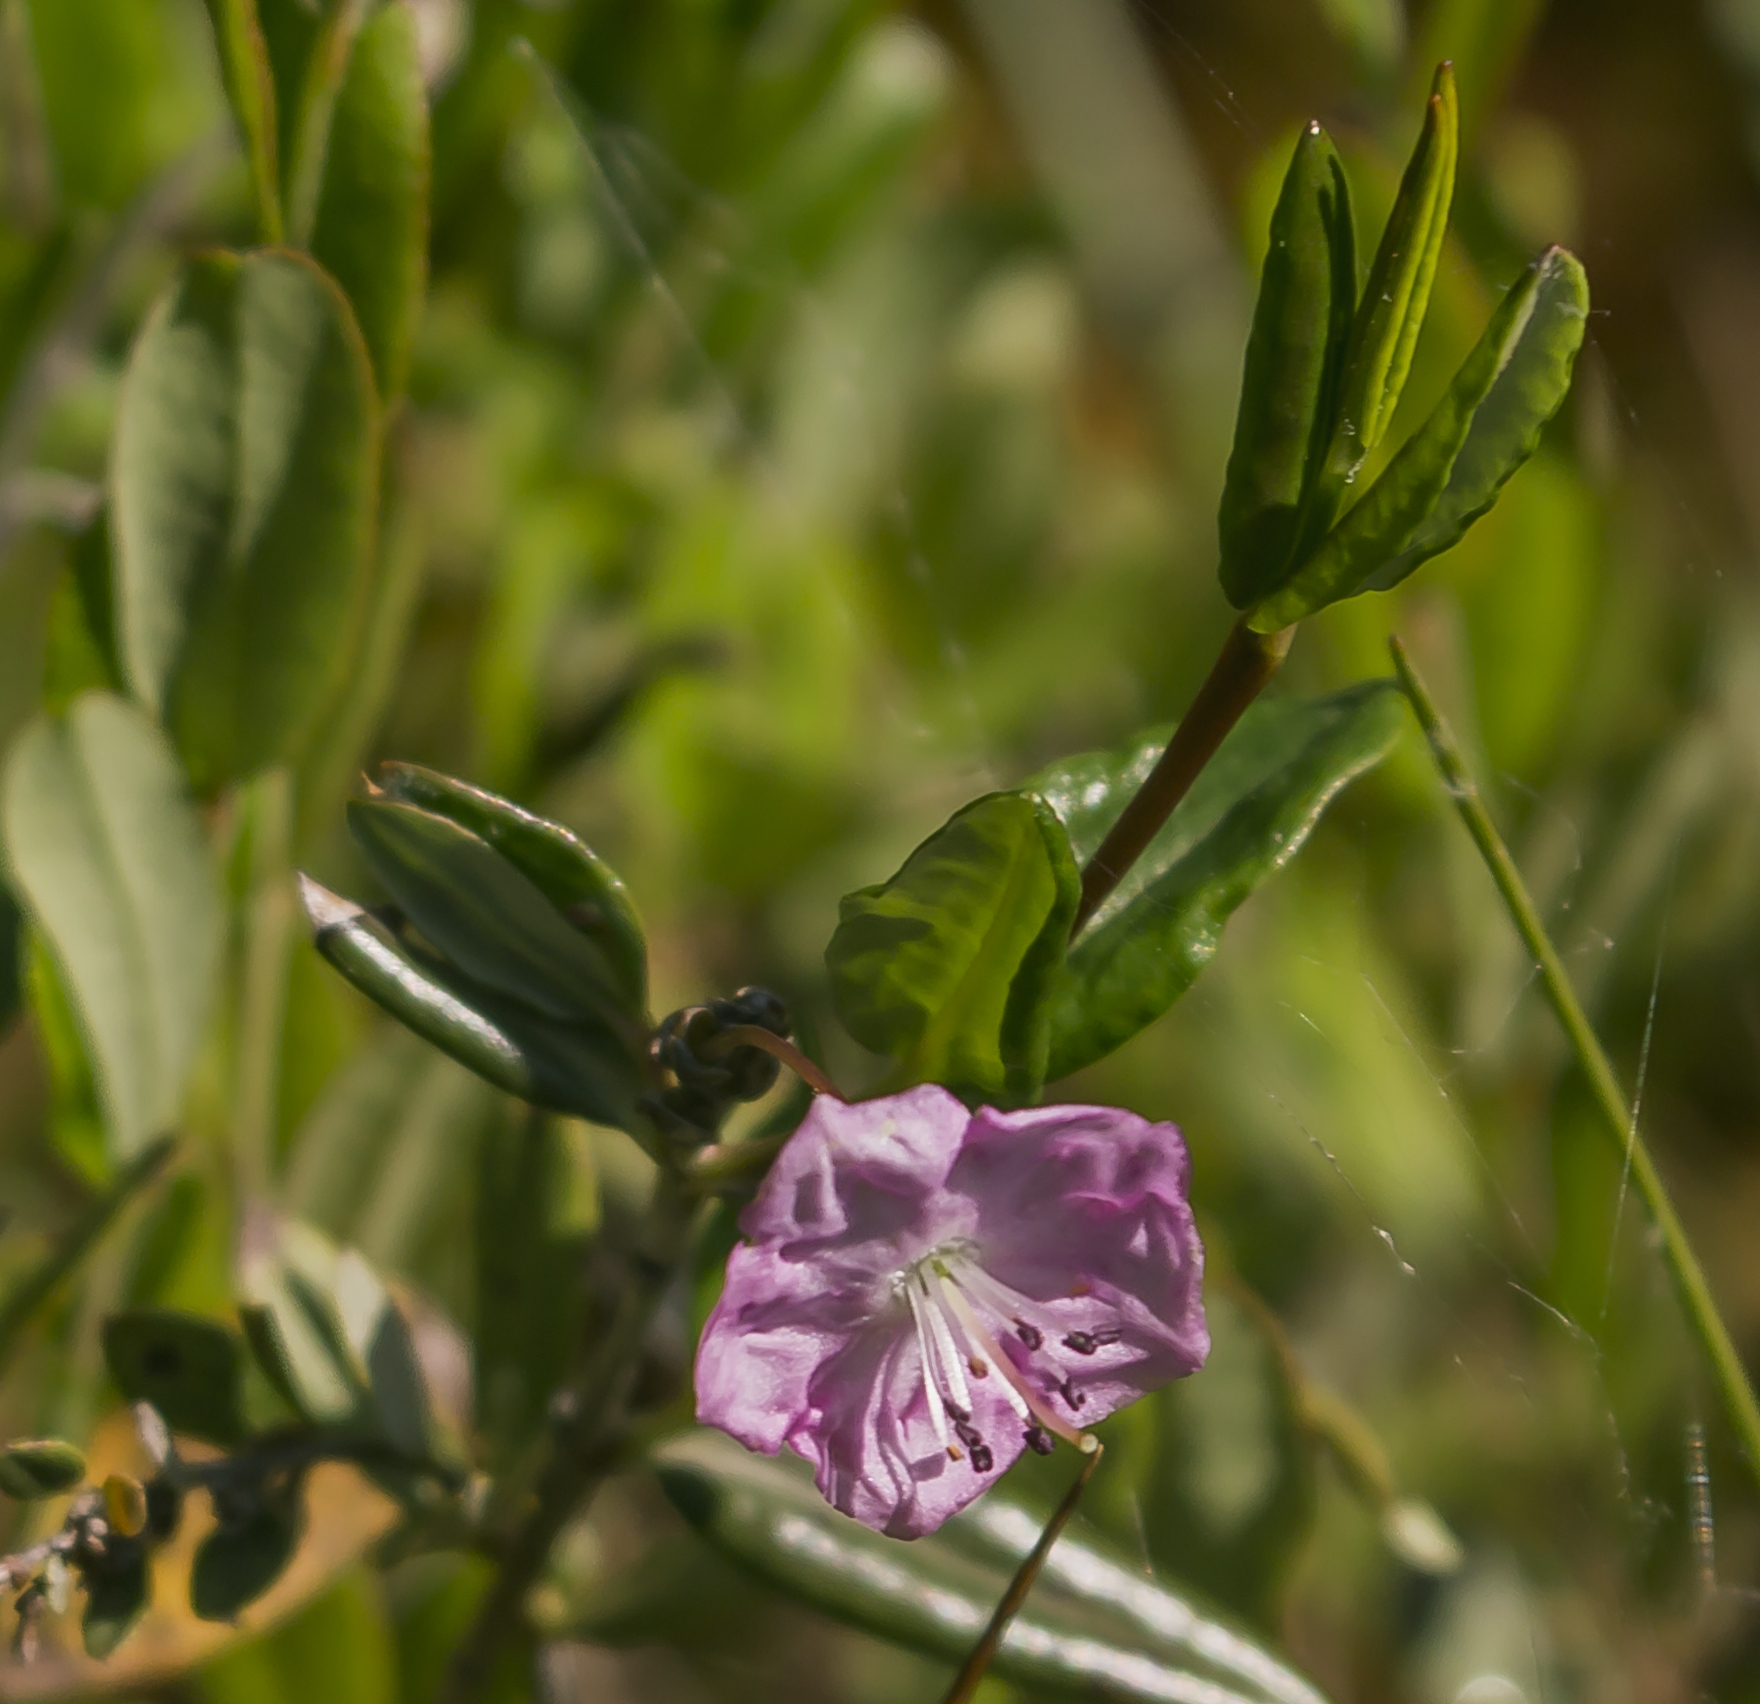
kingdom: Plantae
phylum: Tracheophyta
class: Magnoliopsida
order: Ericales
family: Ericaceae
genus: Kalmia
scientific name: Kalmia polifolia
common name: Bog-laurel
